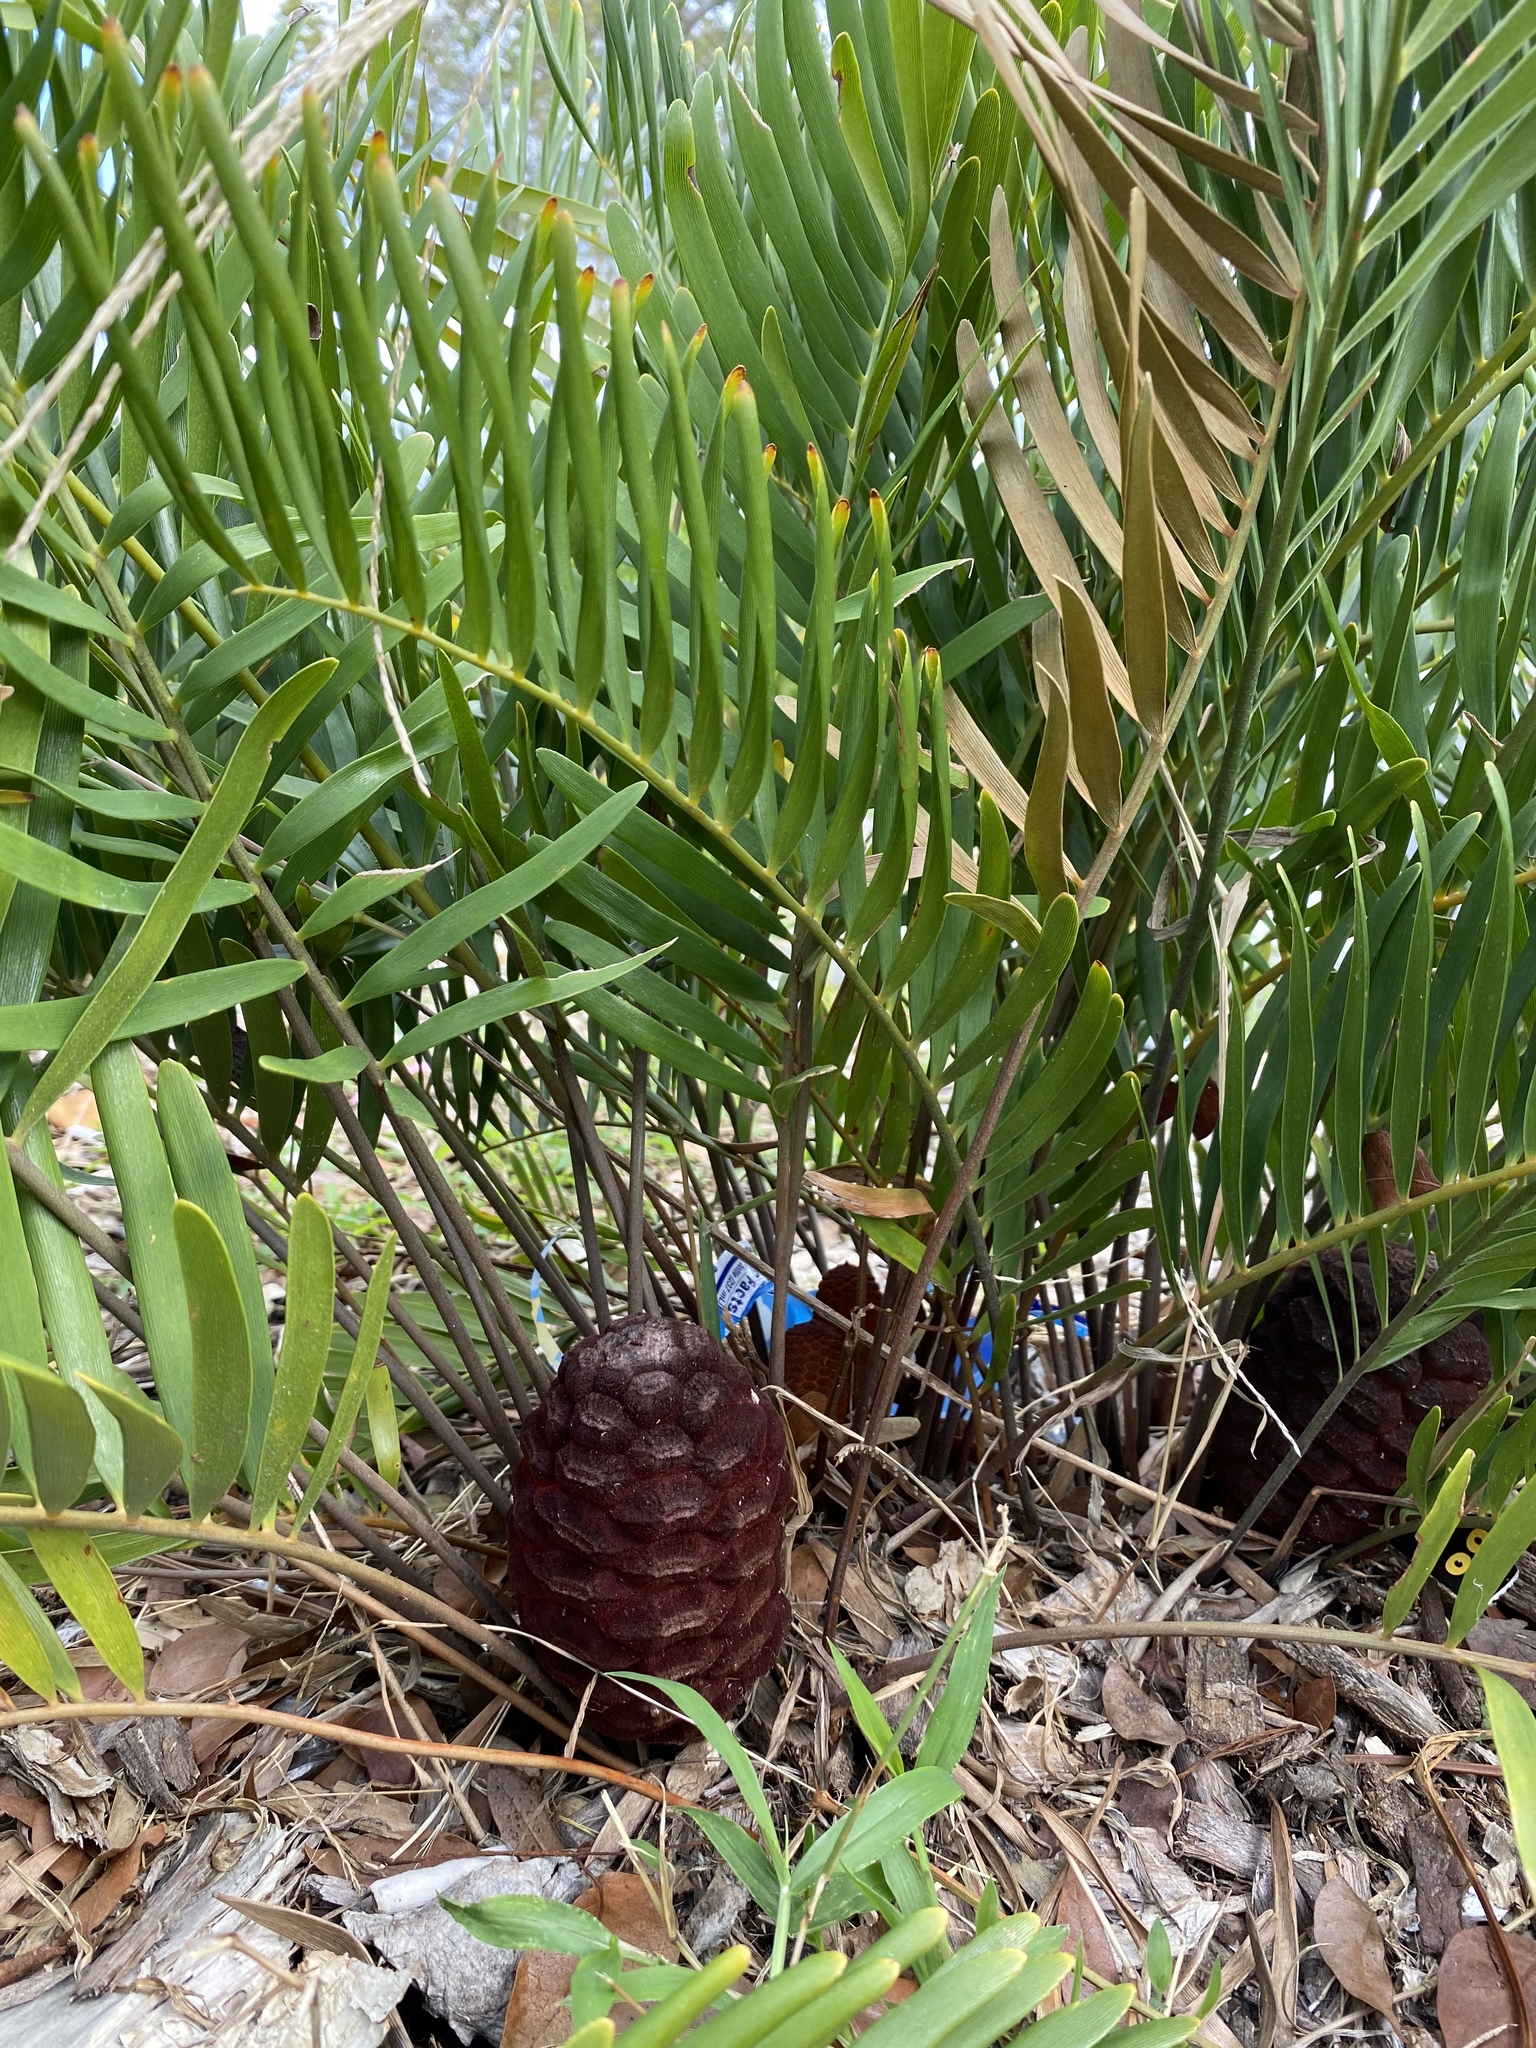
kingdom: Plantae
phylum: Tracheophyta
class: Cycadopsida
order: Cycadales
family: Zamiaceae
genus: Zamia
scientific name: Zamia integrifolia
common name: Florida arrowroot
